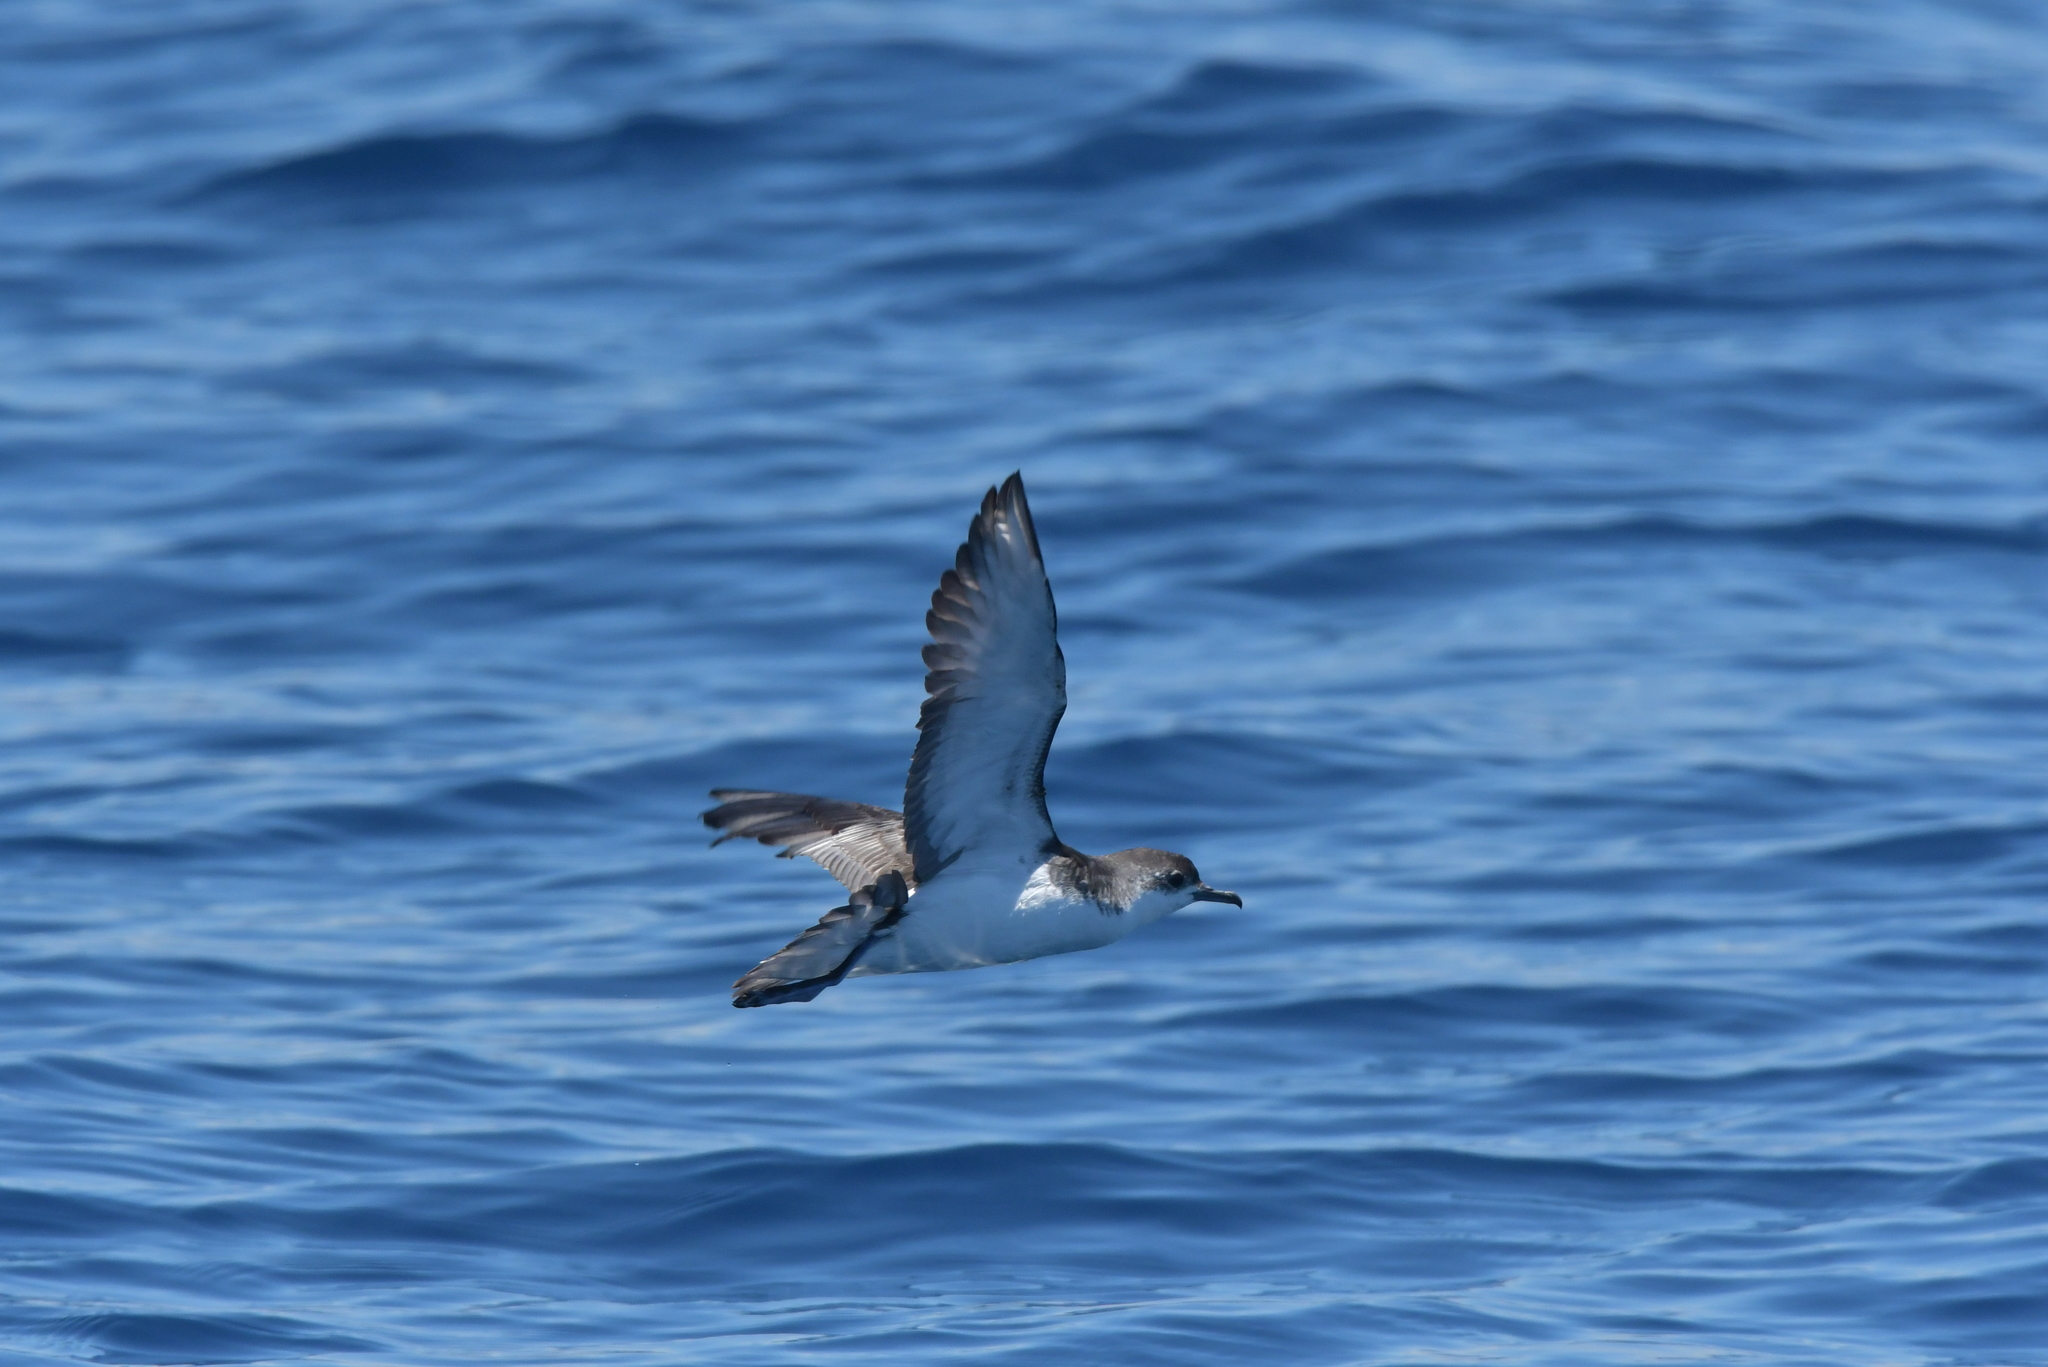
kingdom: Animalia
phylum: Chordata
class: Aves
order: Procellariiformes
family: Procellariidae
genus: Puffinus
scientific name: Puffinus assimilis
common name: Little shearwater
